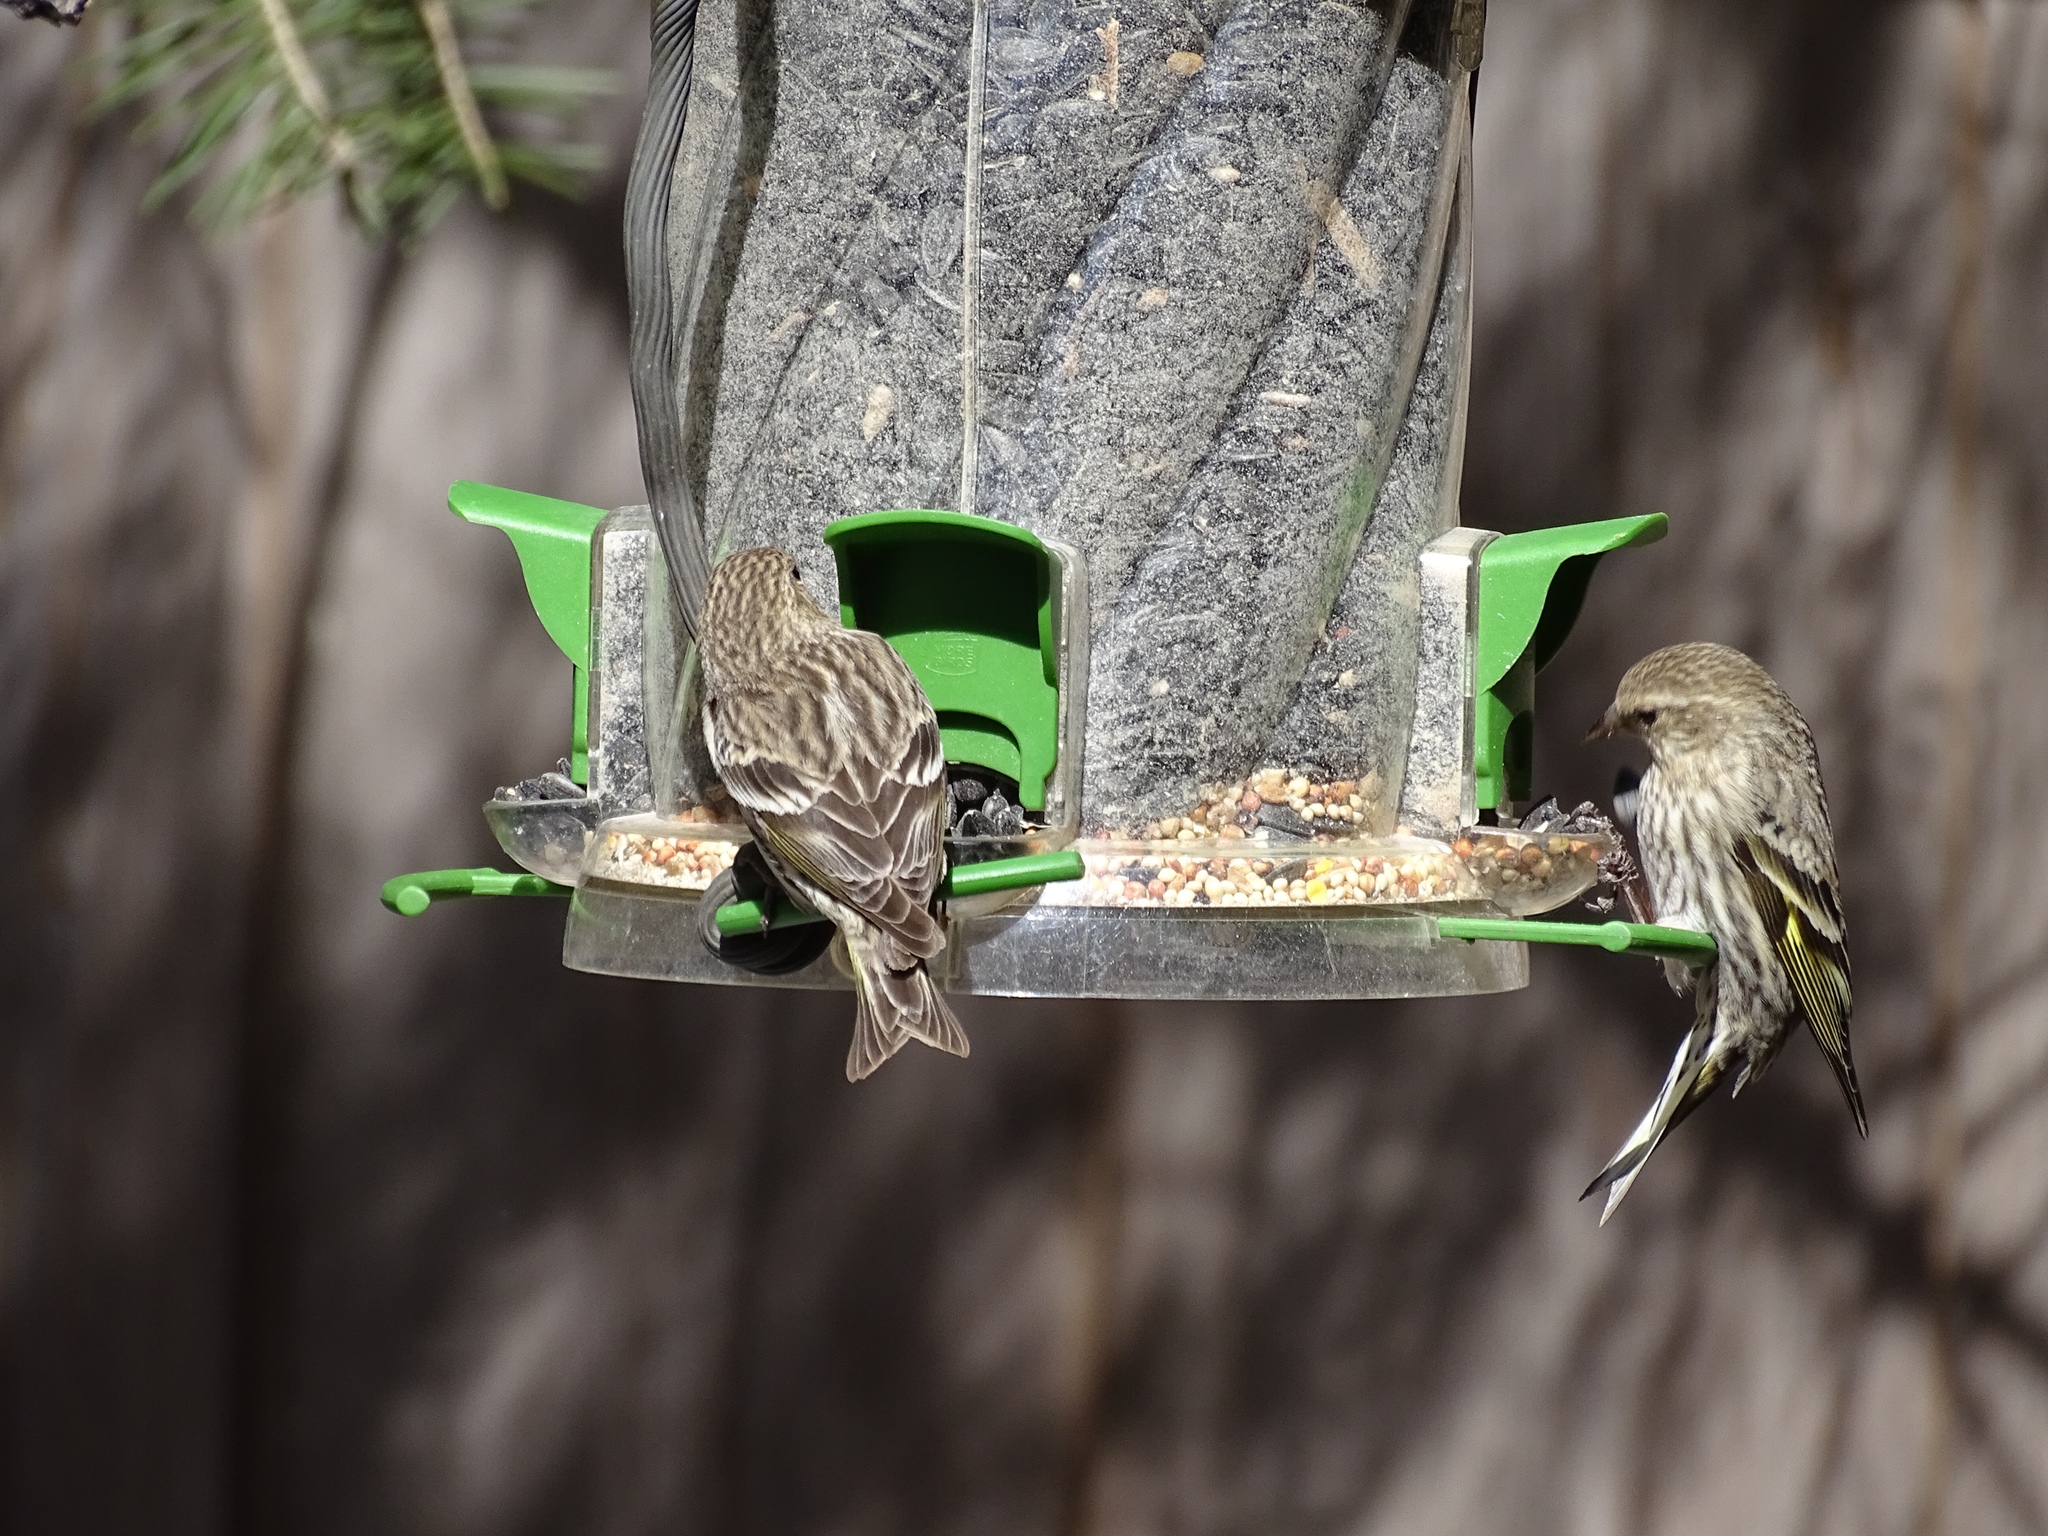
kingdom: Animalia
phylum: Chordata
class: Aves
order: Passeriformes
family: Fringillidae
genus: Spinus
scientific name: Spinus pinus
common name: Pine siskin
